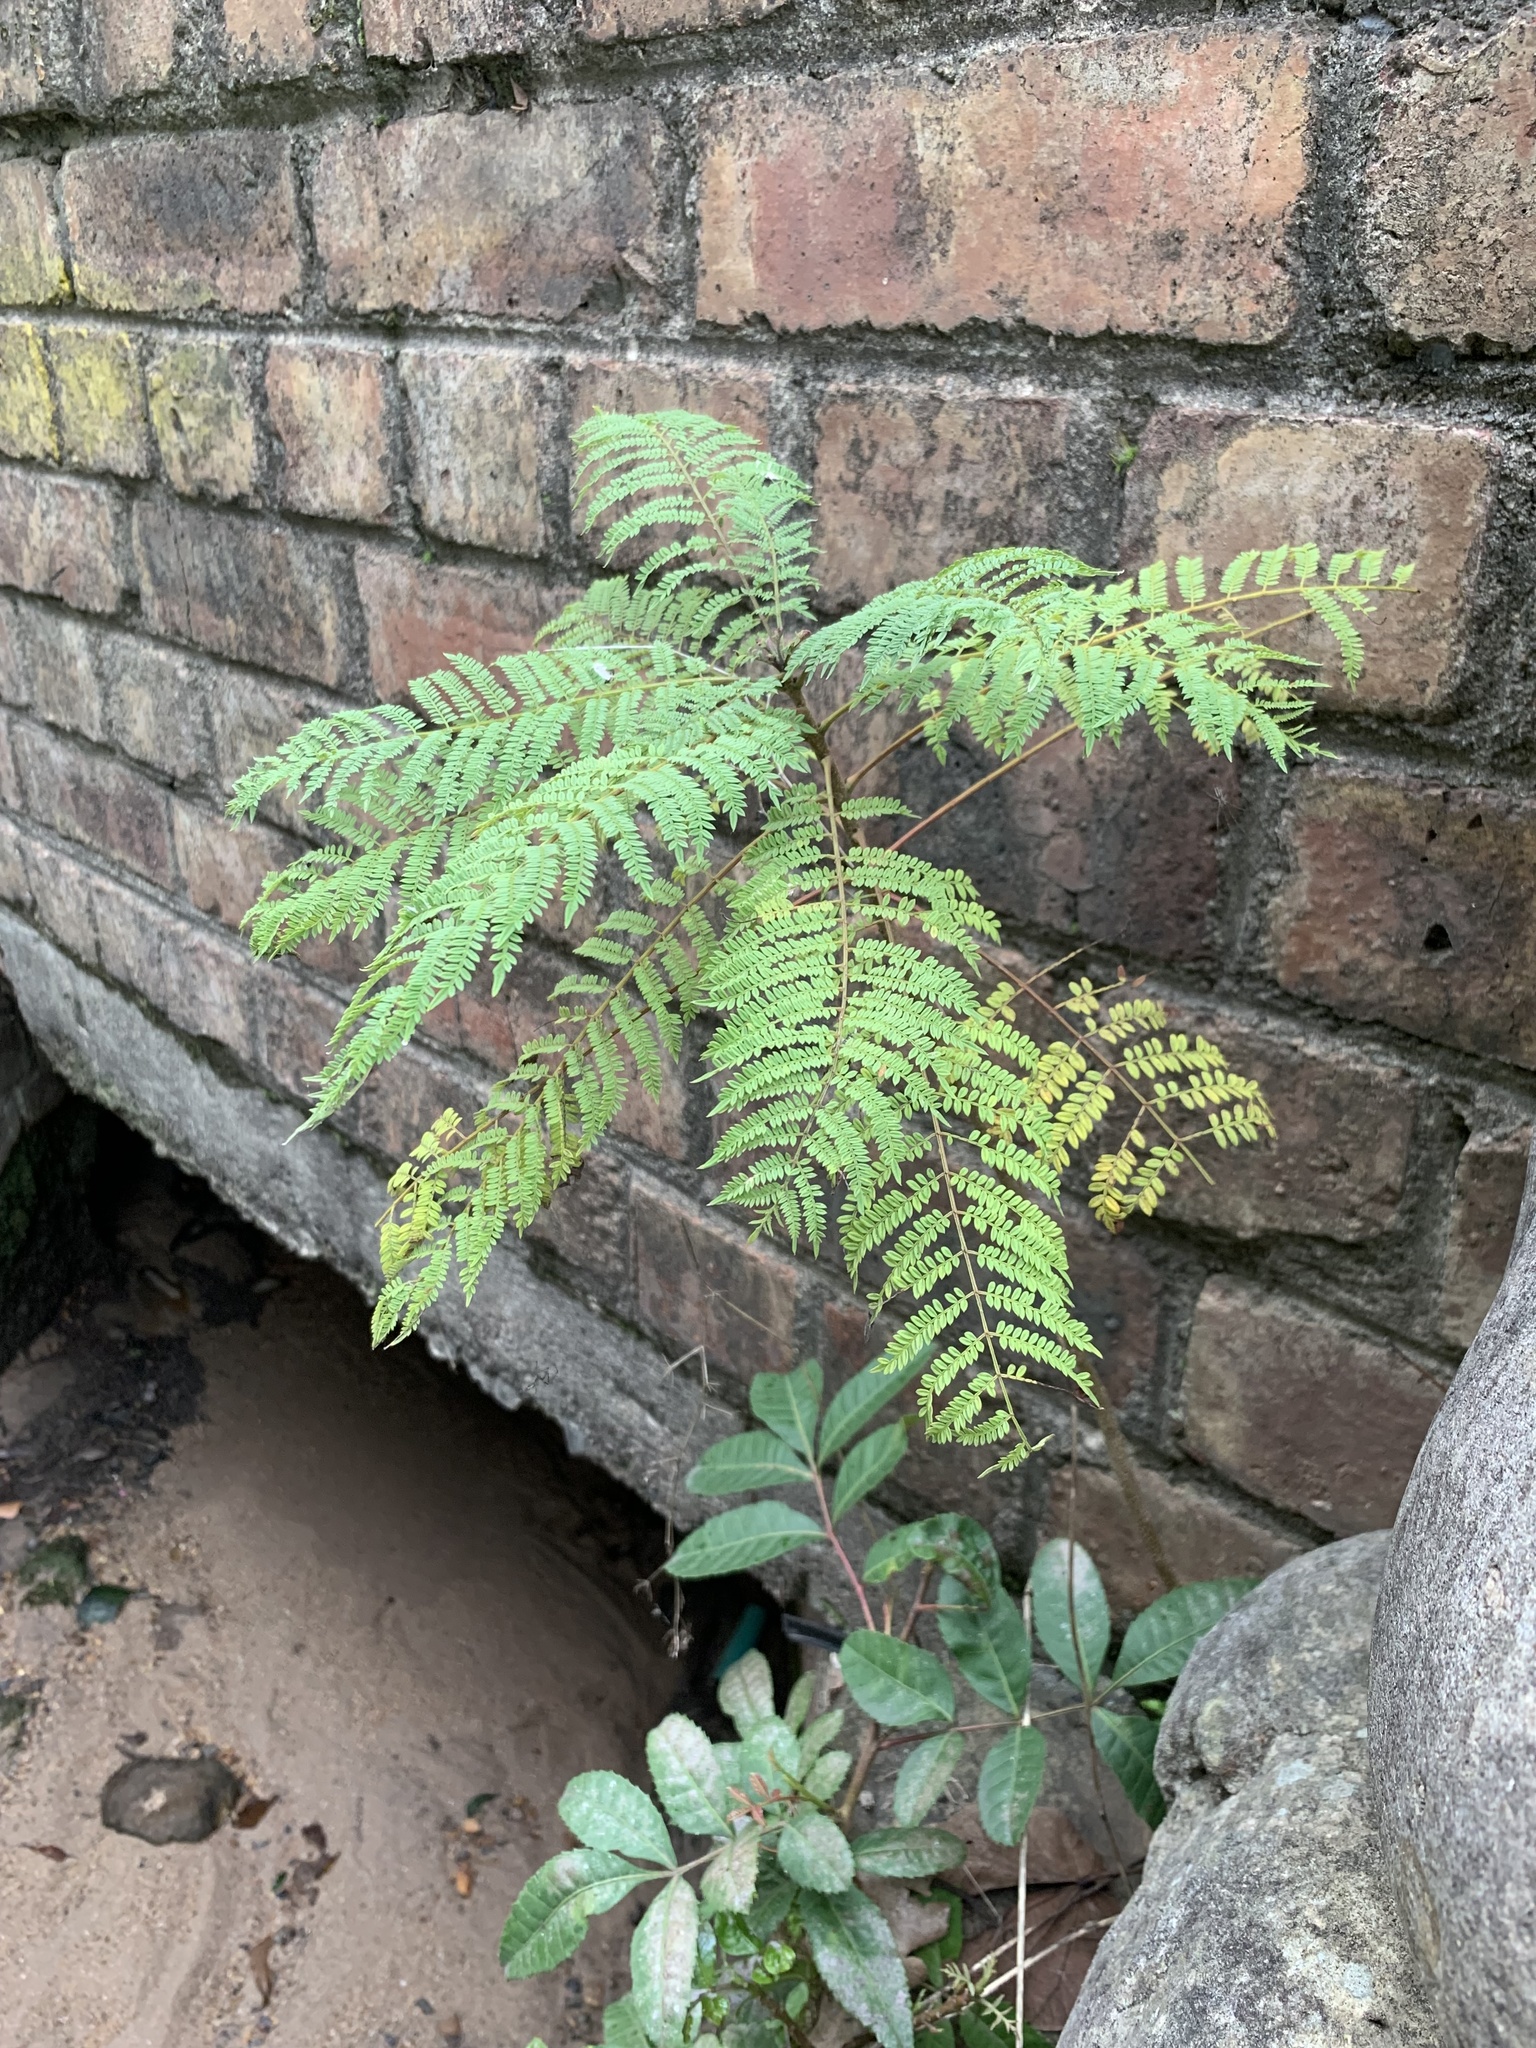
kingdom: Plantae
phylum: Tracheophyta
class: Magnoliopsida
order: Lamiales
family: Bignoniaceae
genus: Jacaranda
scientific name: Jacaranda mimosifolia
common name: Black poui
